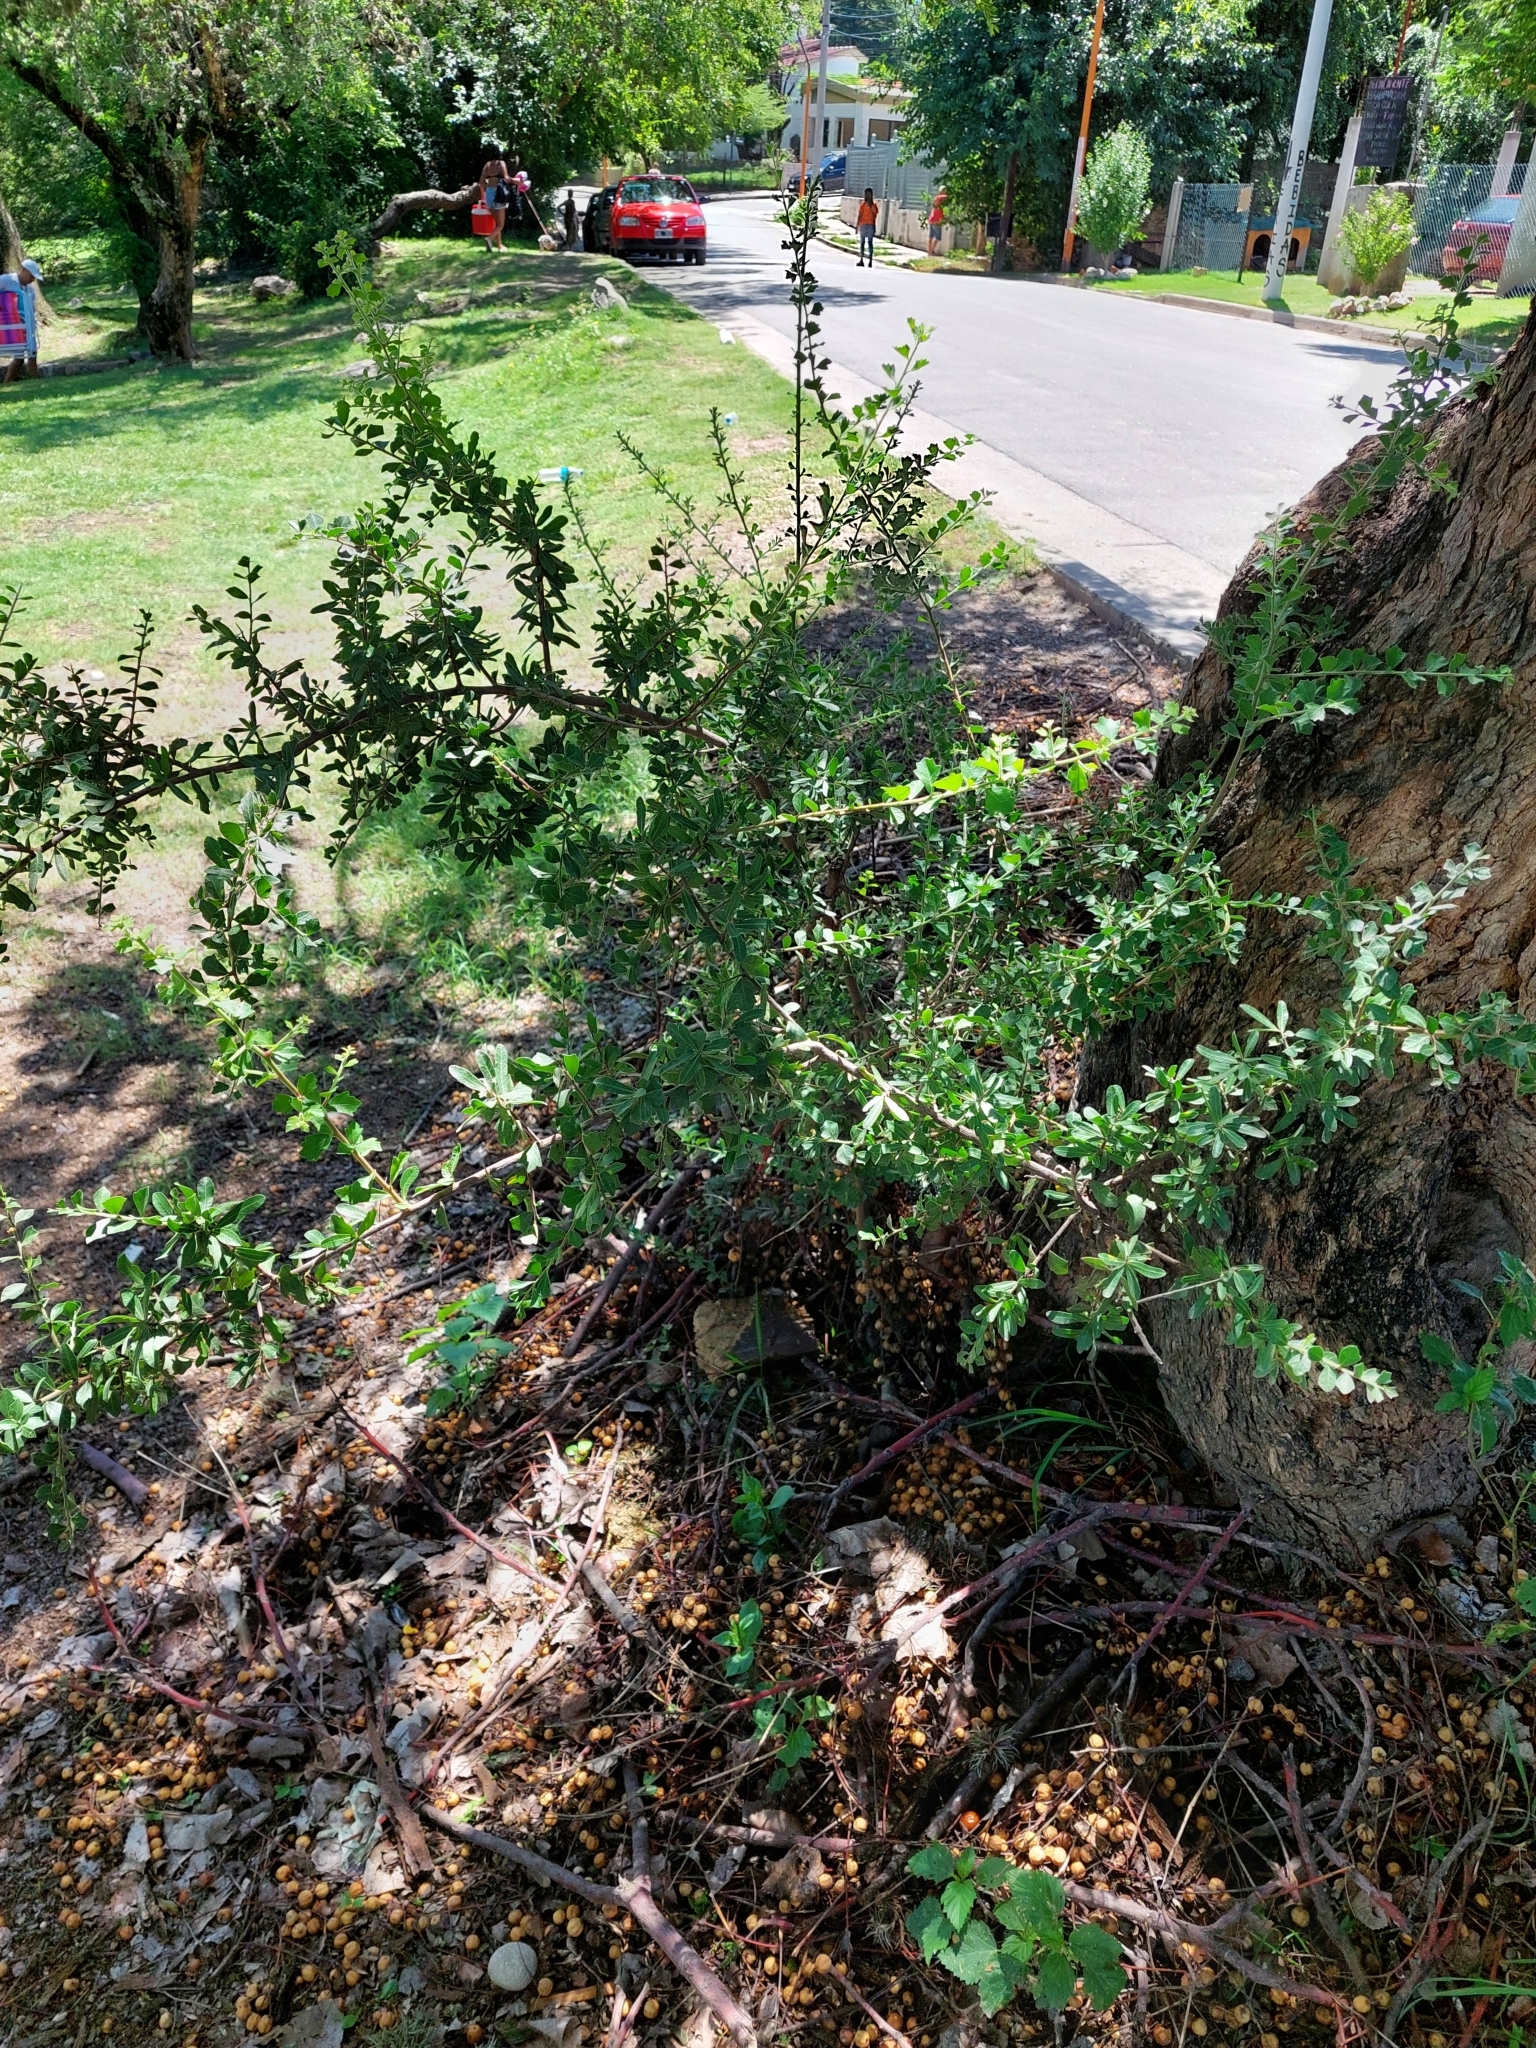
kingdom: Plantae
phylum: Tracheophyta
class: Magnoliopsida
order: Sapindales
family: Anacardiaceae
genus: Schinus
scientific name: Schinus fasciculata
